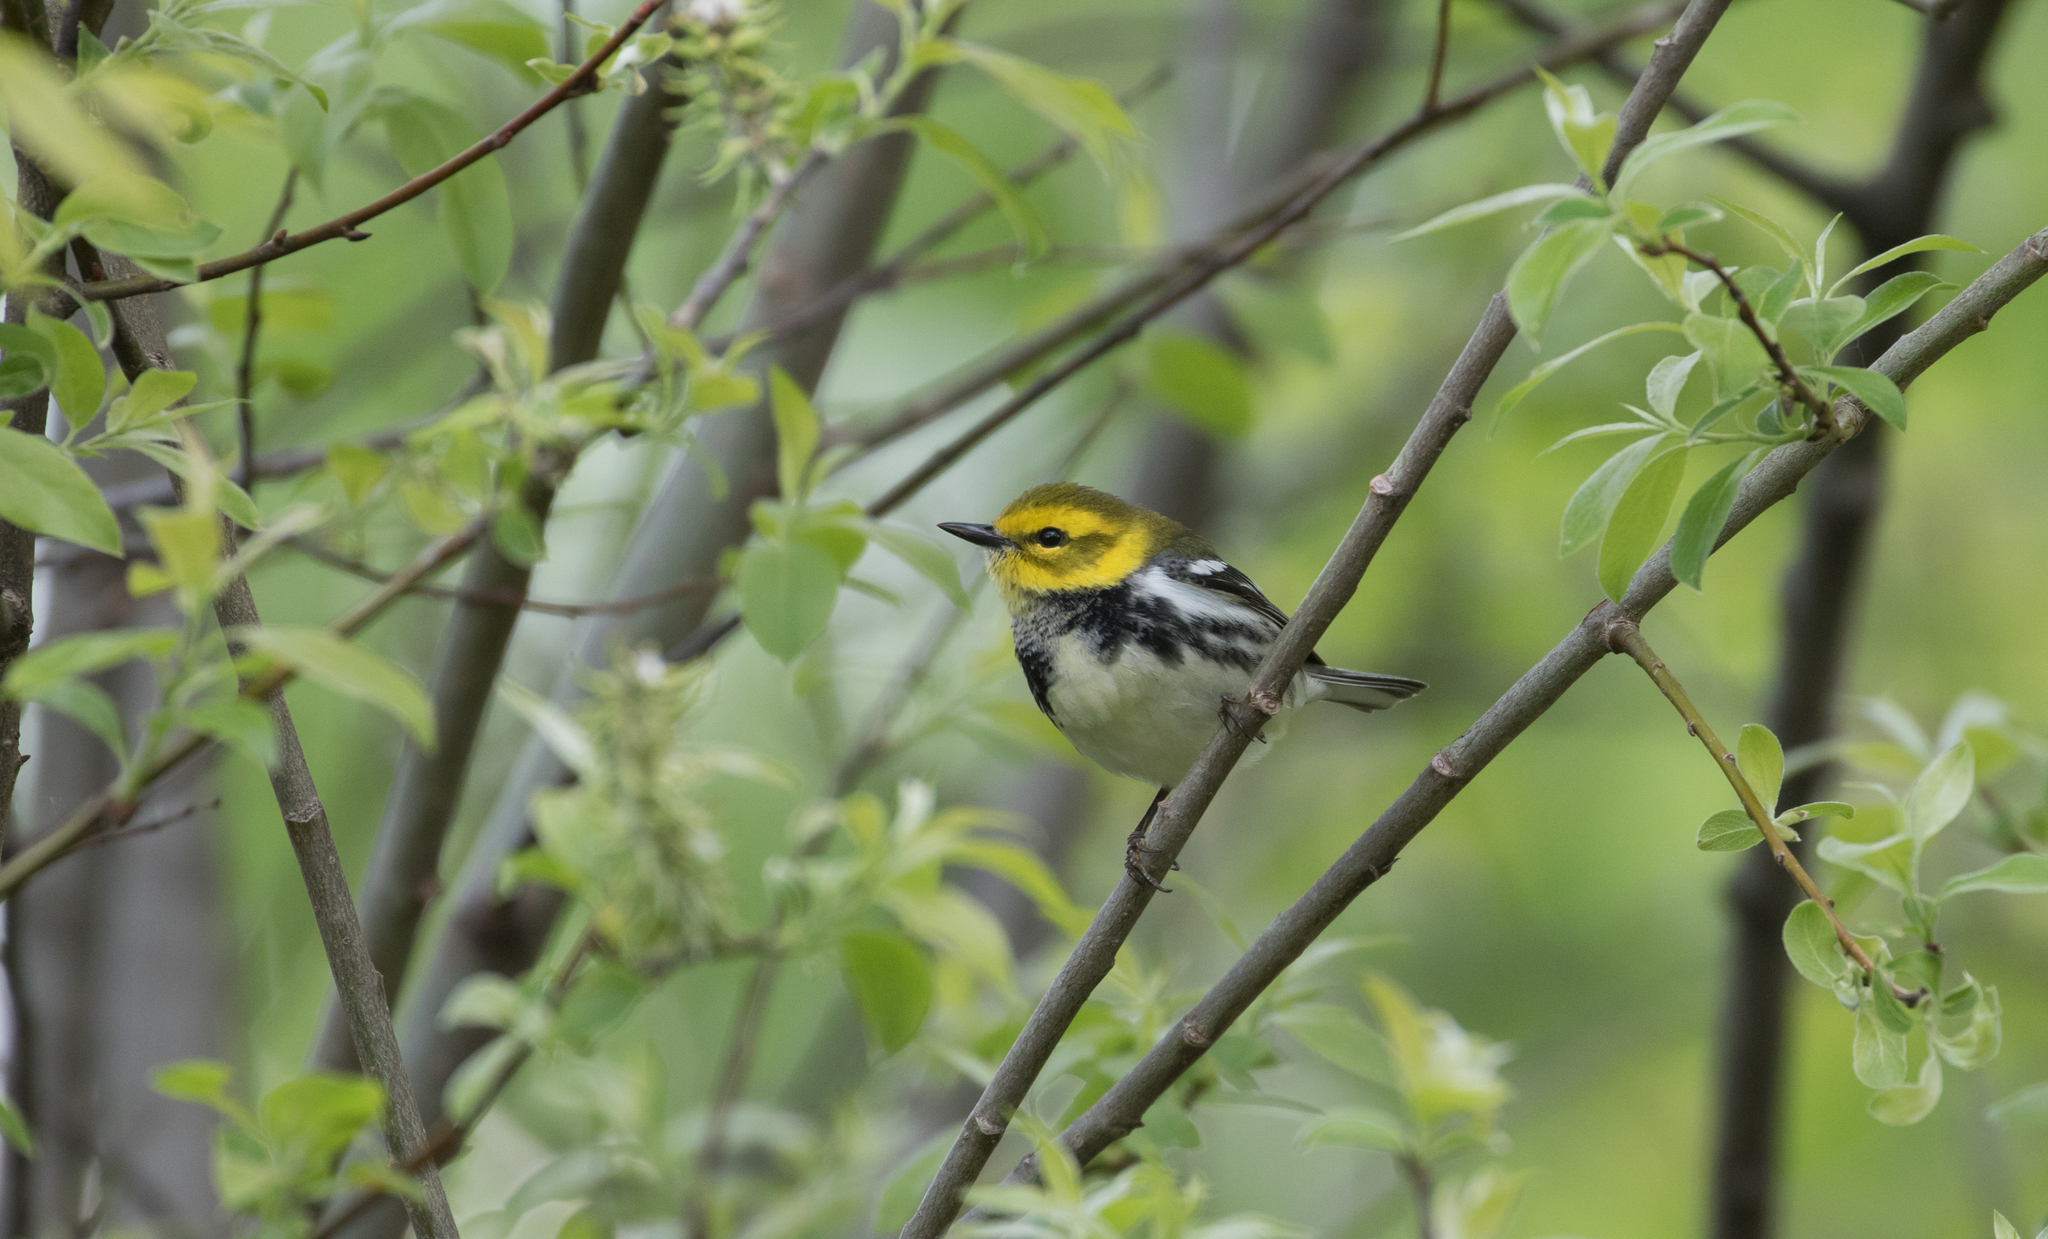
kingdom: Animalia
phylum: Chordata
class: Aves
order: Passeriformes
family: Parulidae
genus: Setophaga
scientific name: Setophaga virens
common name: Black-throated green warbler
